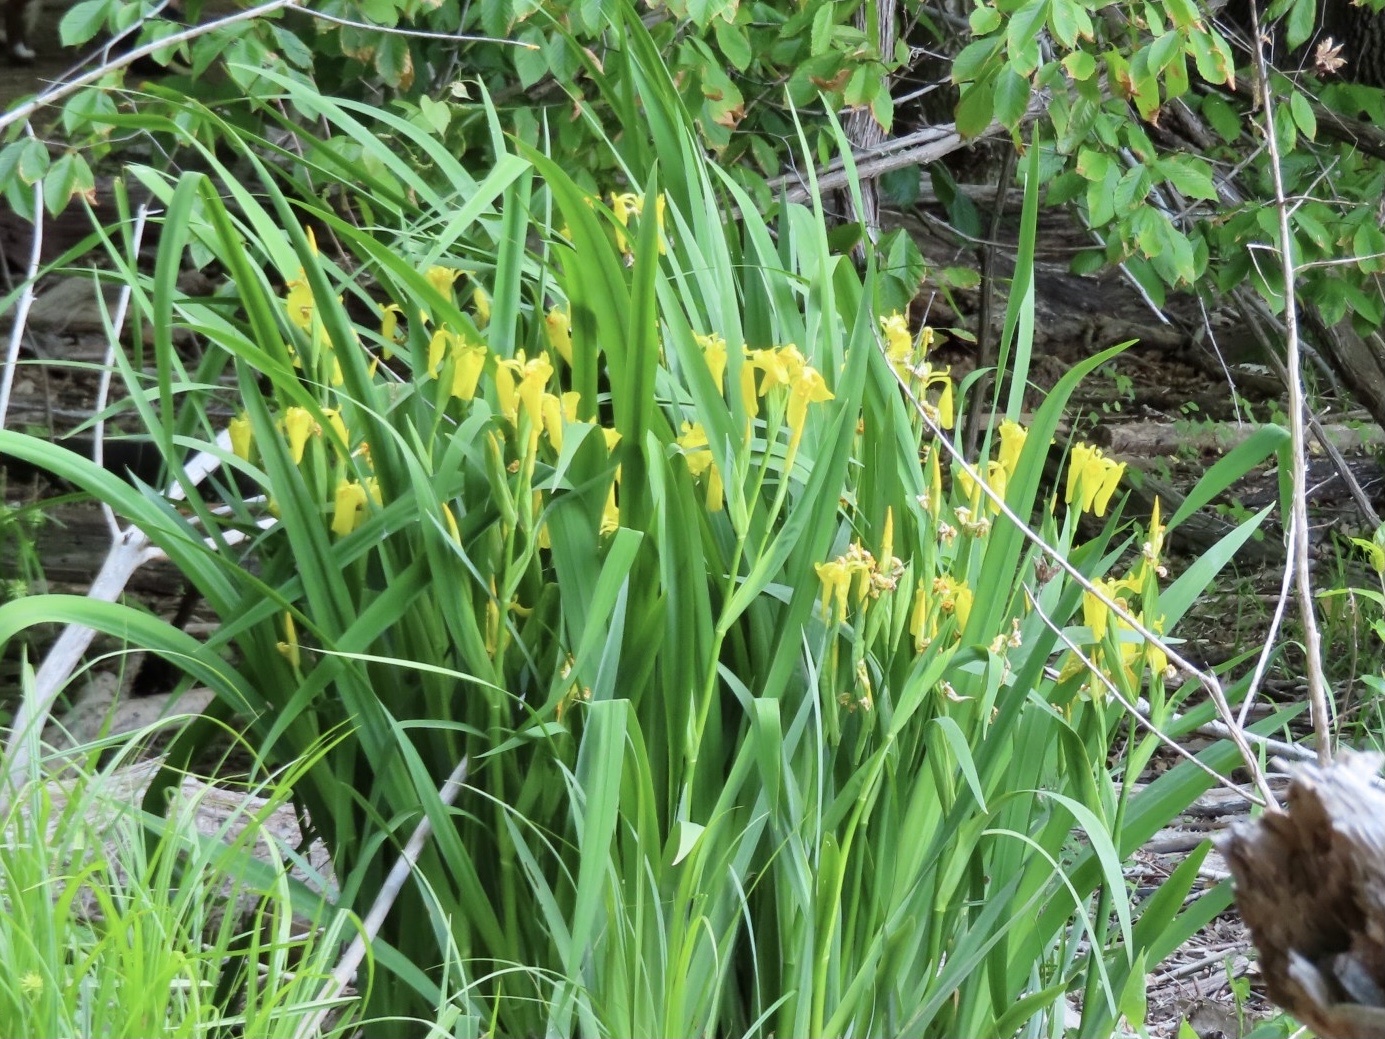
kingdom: Plantae
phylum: Tracheophyta
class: Liliopsida
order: Asparagales
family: Iridaceae
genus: Iris
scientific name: Iris pseudacorus
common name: Yellow flag
